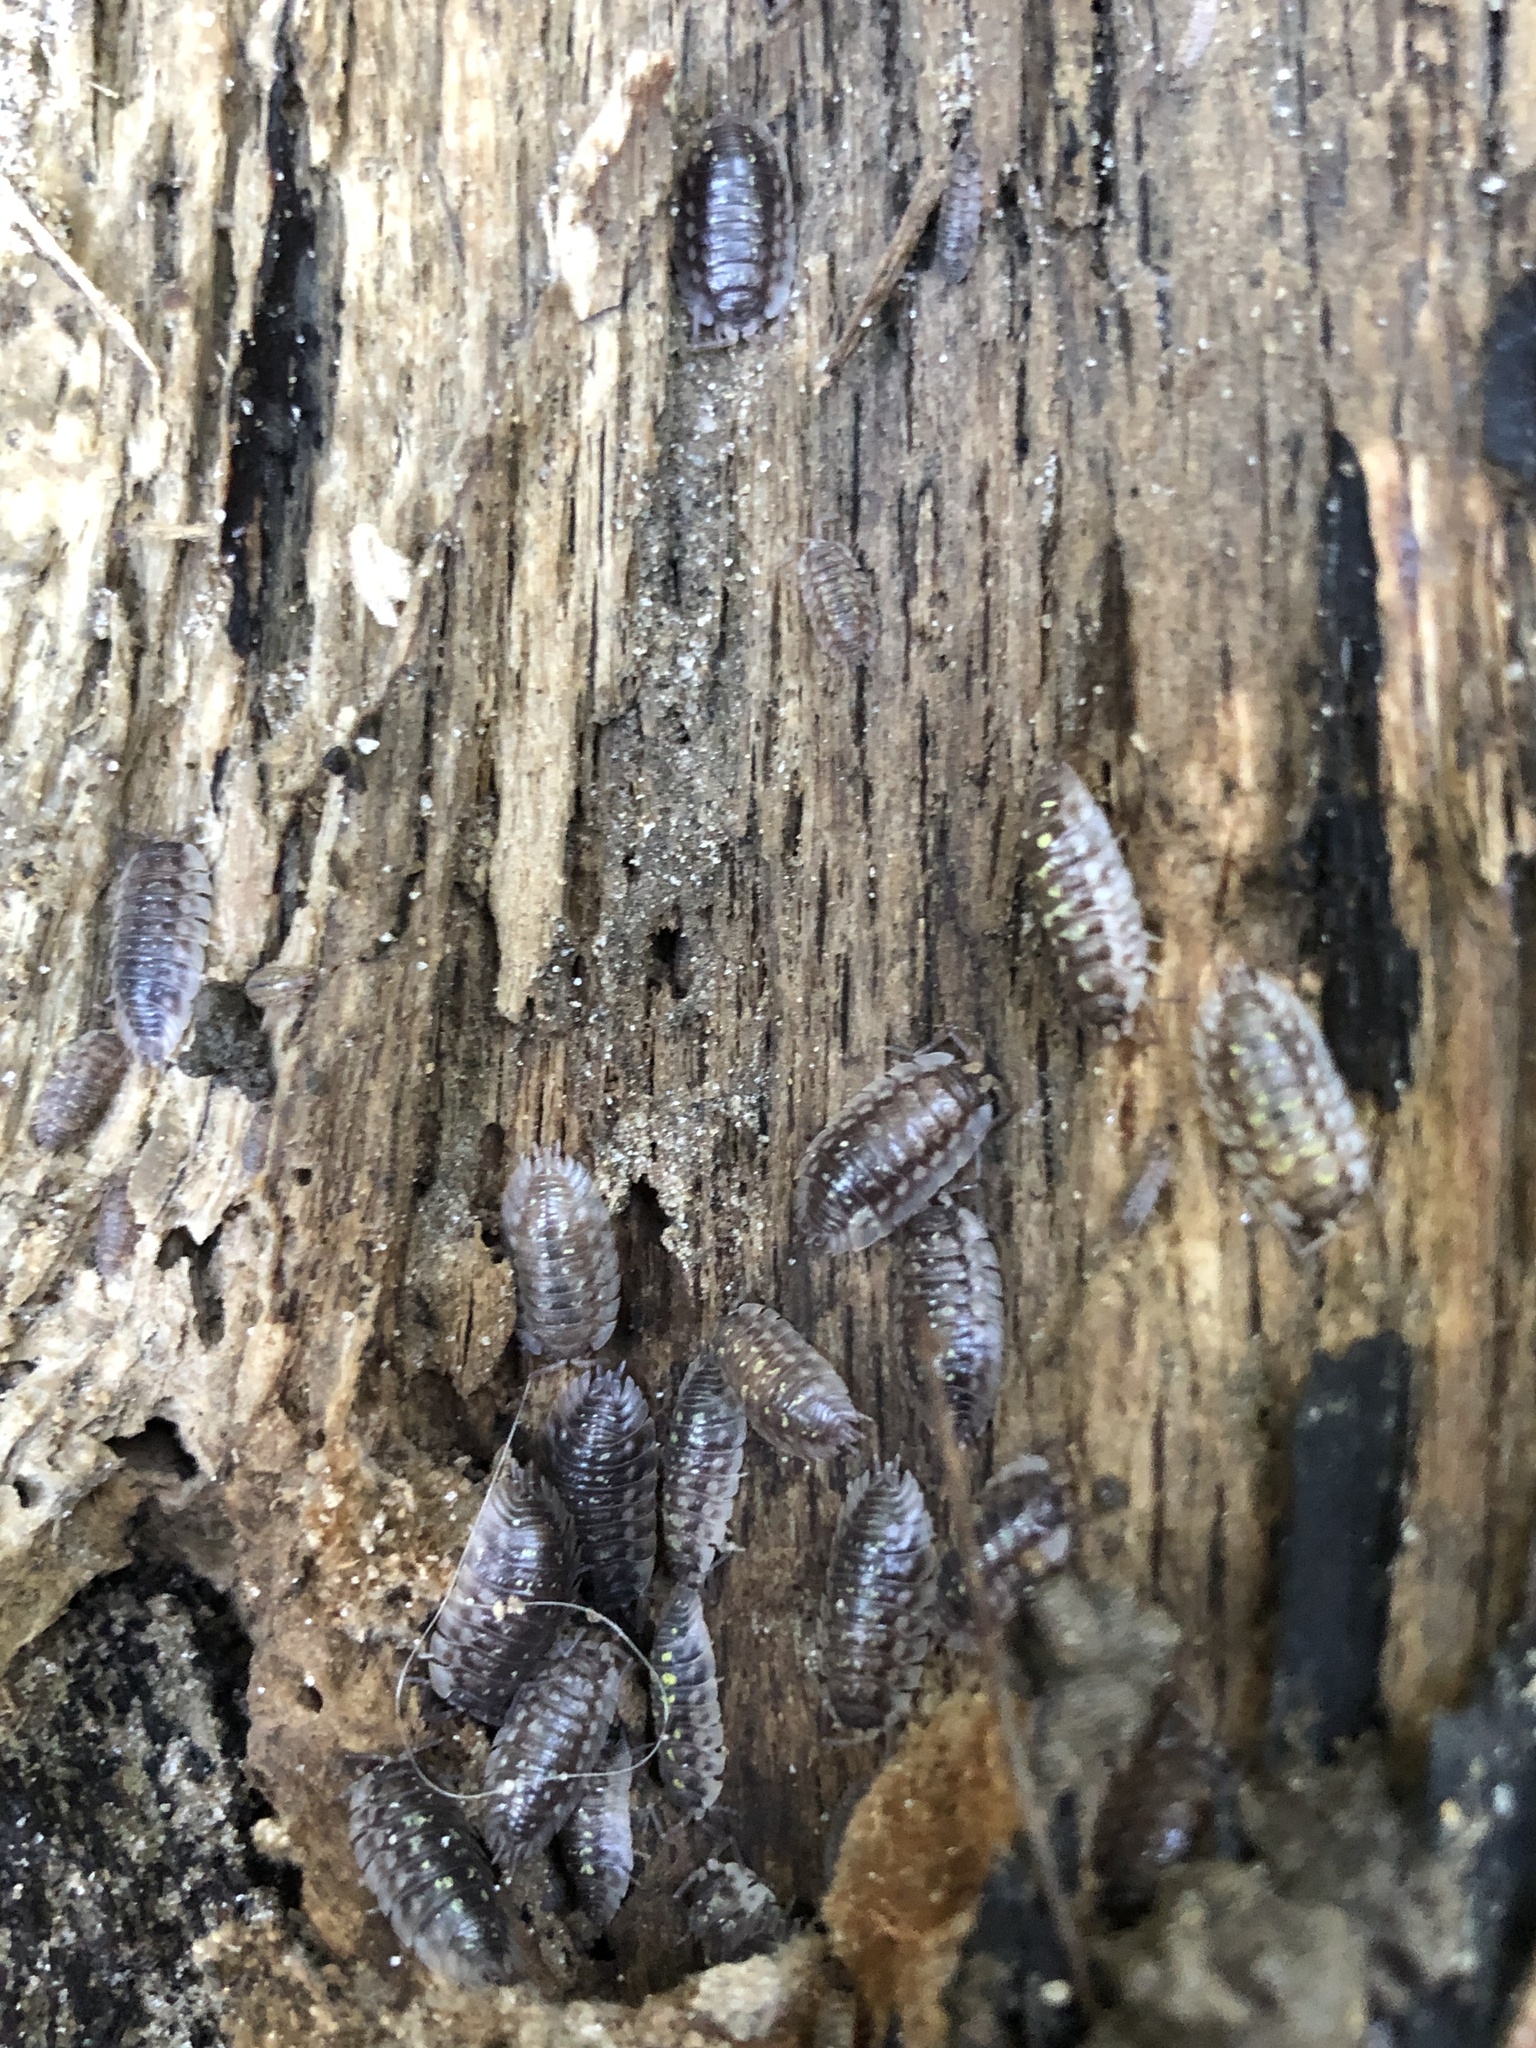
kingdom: Animalia
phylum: Arthropoda
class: Malacostraca
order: Isopoda
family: Oniscidae
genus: Oniscus
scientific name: Oniscus asellus
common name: Common shiny woodlouse
